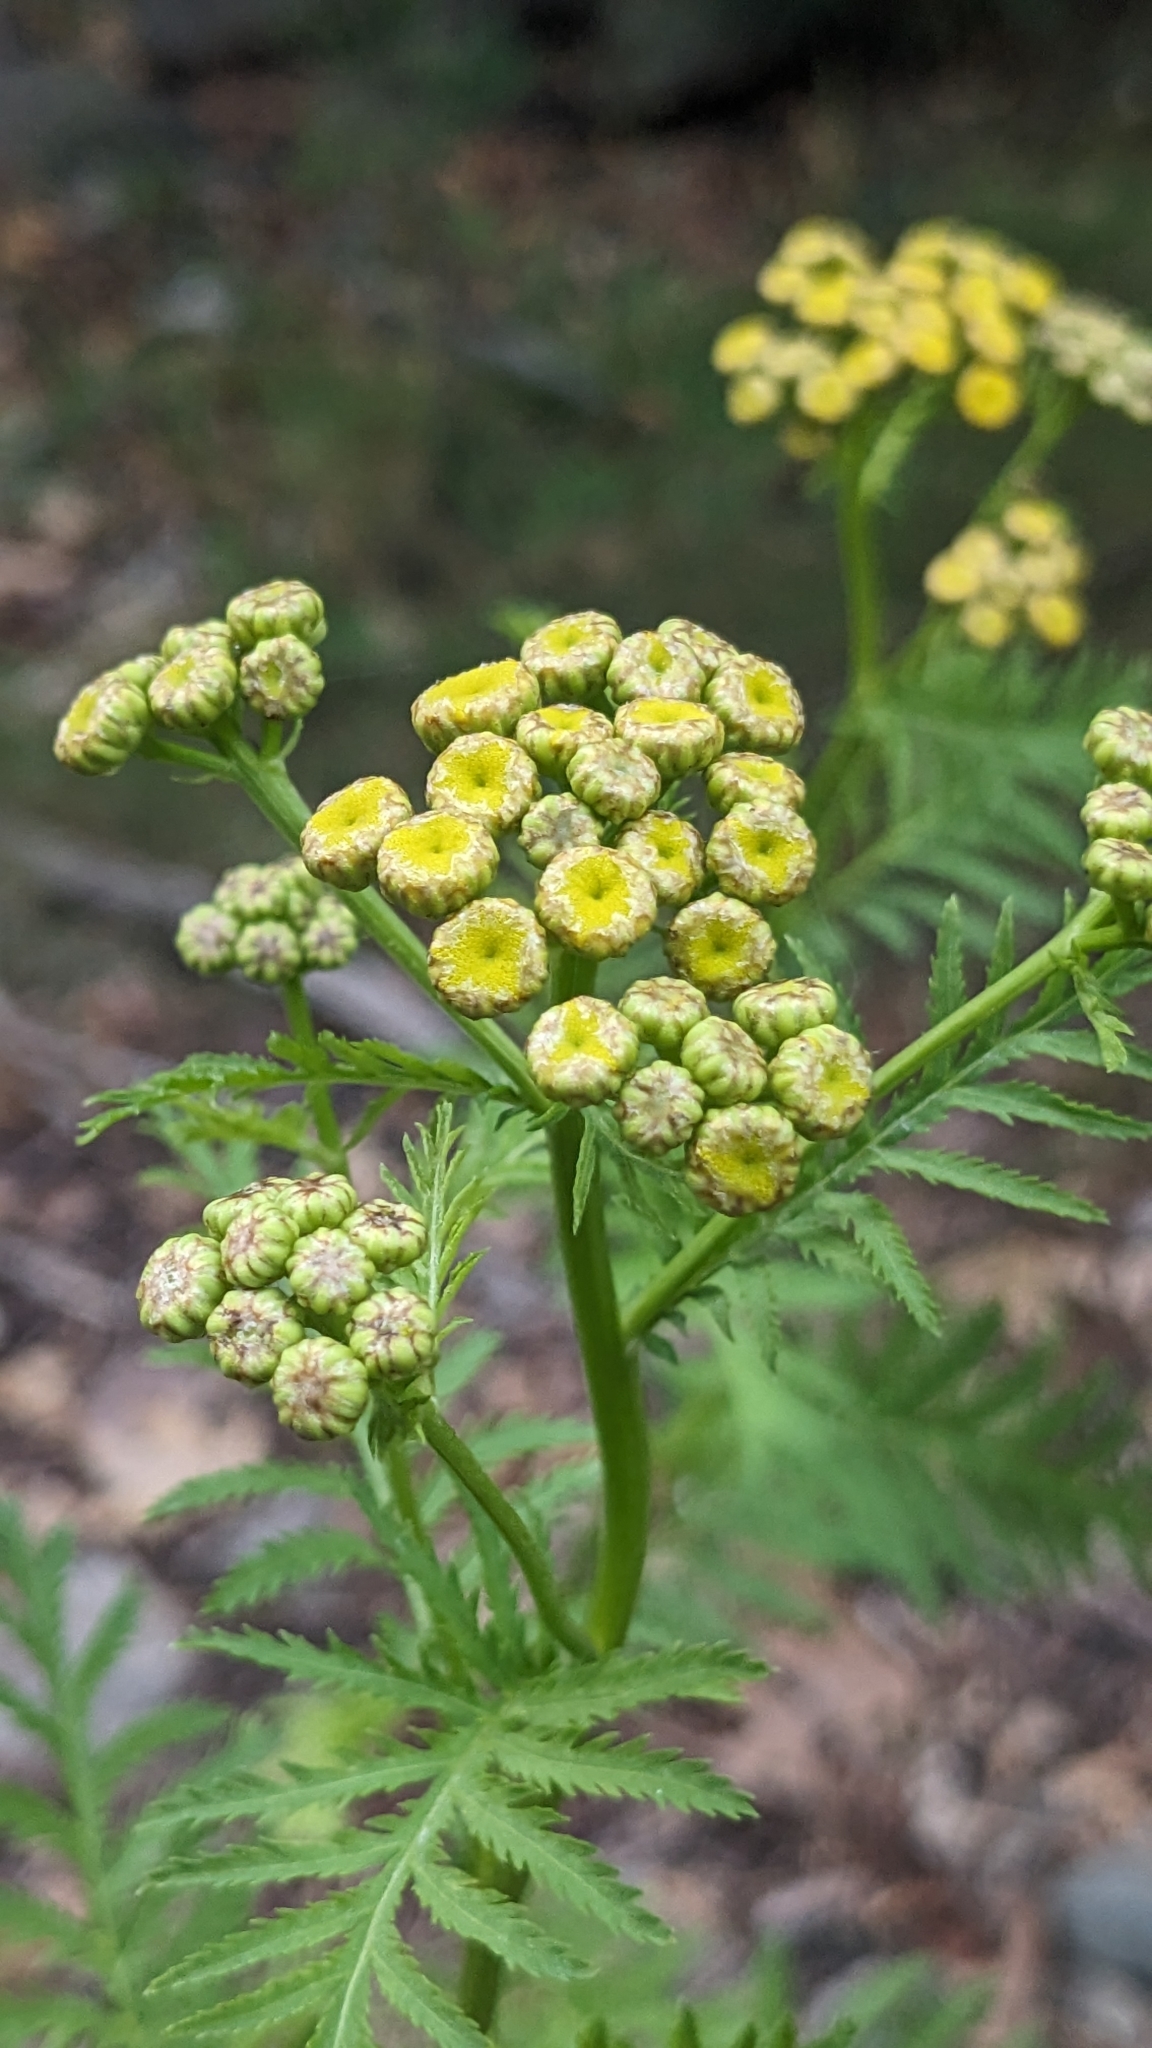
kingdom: Plantae
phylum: Tracheophyta
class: Magnoliopsida
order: Asterales
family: Asteraceae
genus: Tanacetum
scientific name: Tanacetum vulgare
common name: Common tansy
